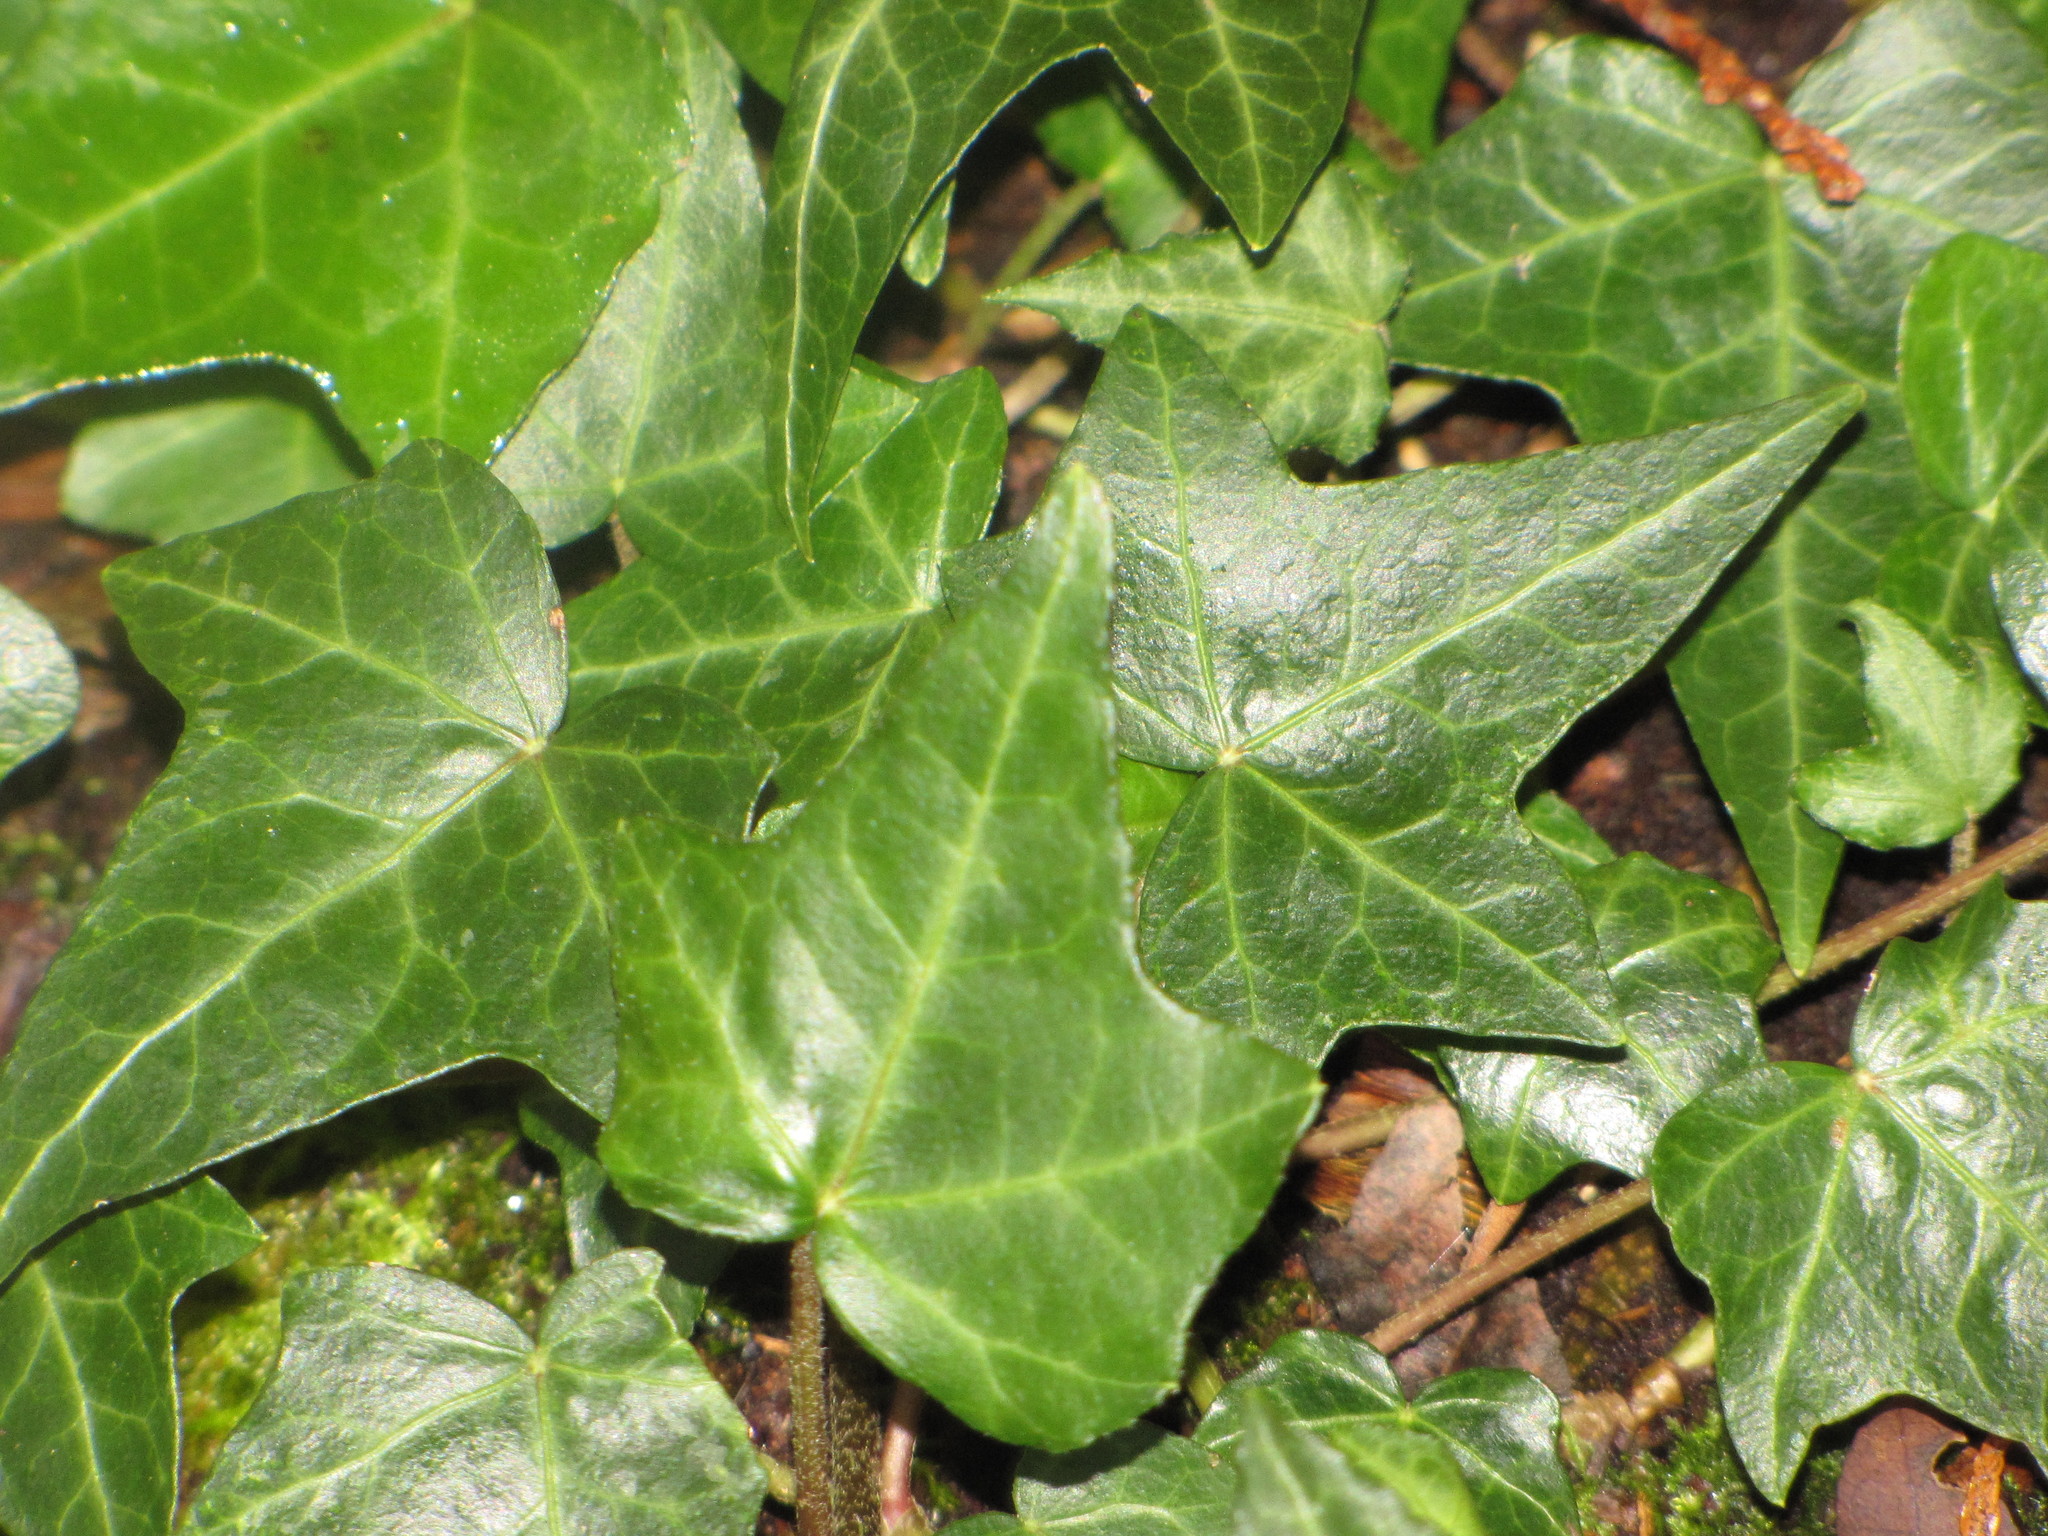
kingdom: Plantae
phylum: Tracheophyta
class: Magnoliopsida
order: Apiales
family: Araliaceae
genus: Hedera
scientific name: Hedera helix
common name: Ivy
